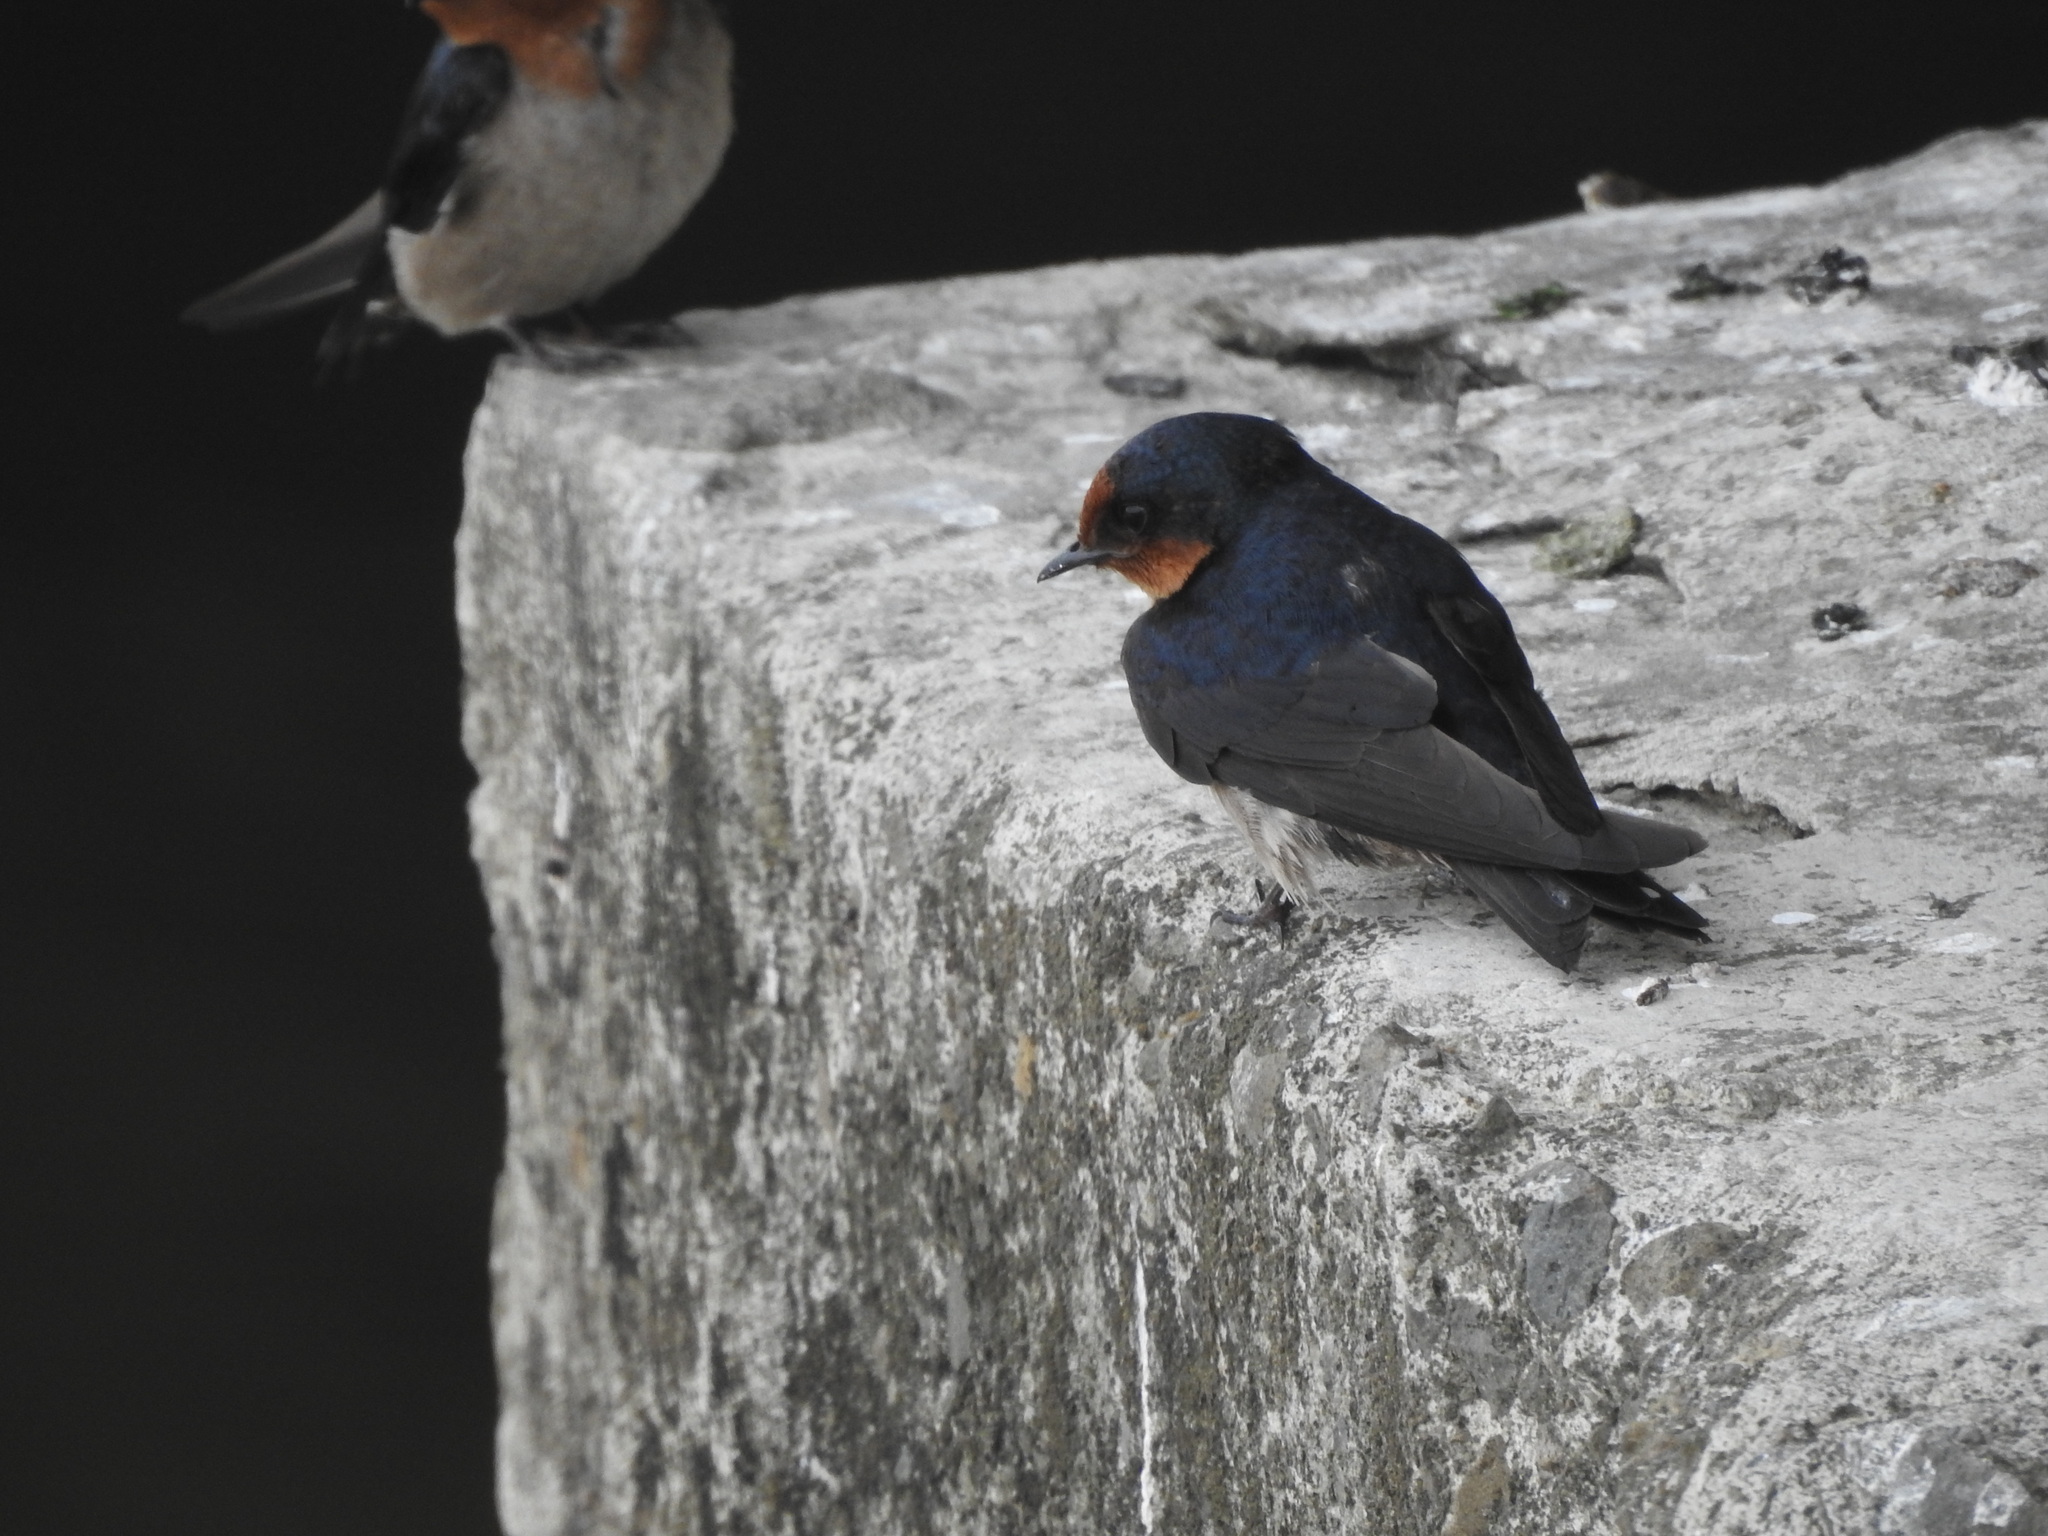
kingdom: Animalia
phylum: Chordata
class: Aves
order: Passeriformes
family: Hirundinidae
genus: Hirundo
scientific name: Hirundo tahitica
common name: Pacific swallow
